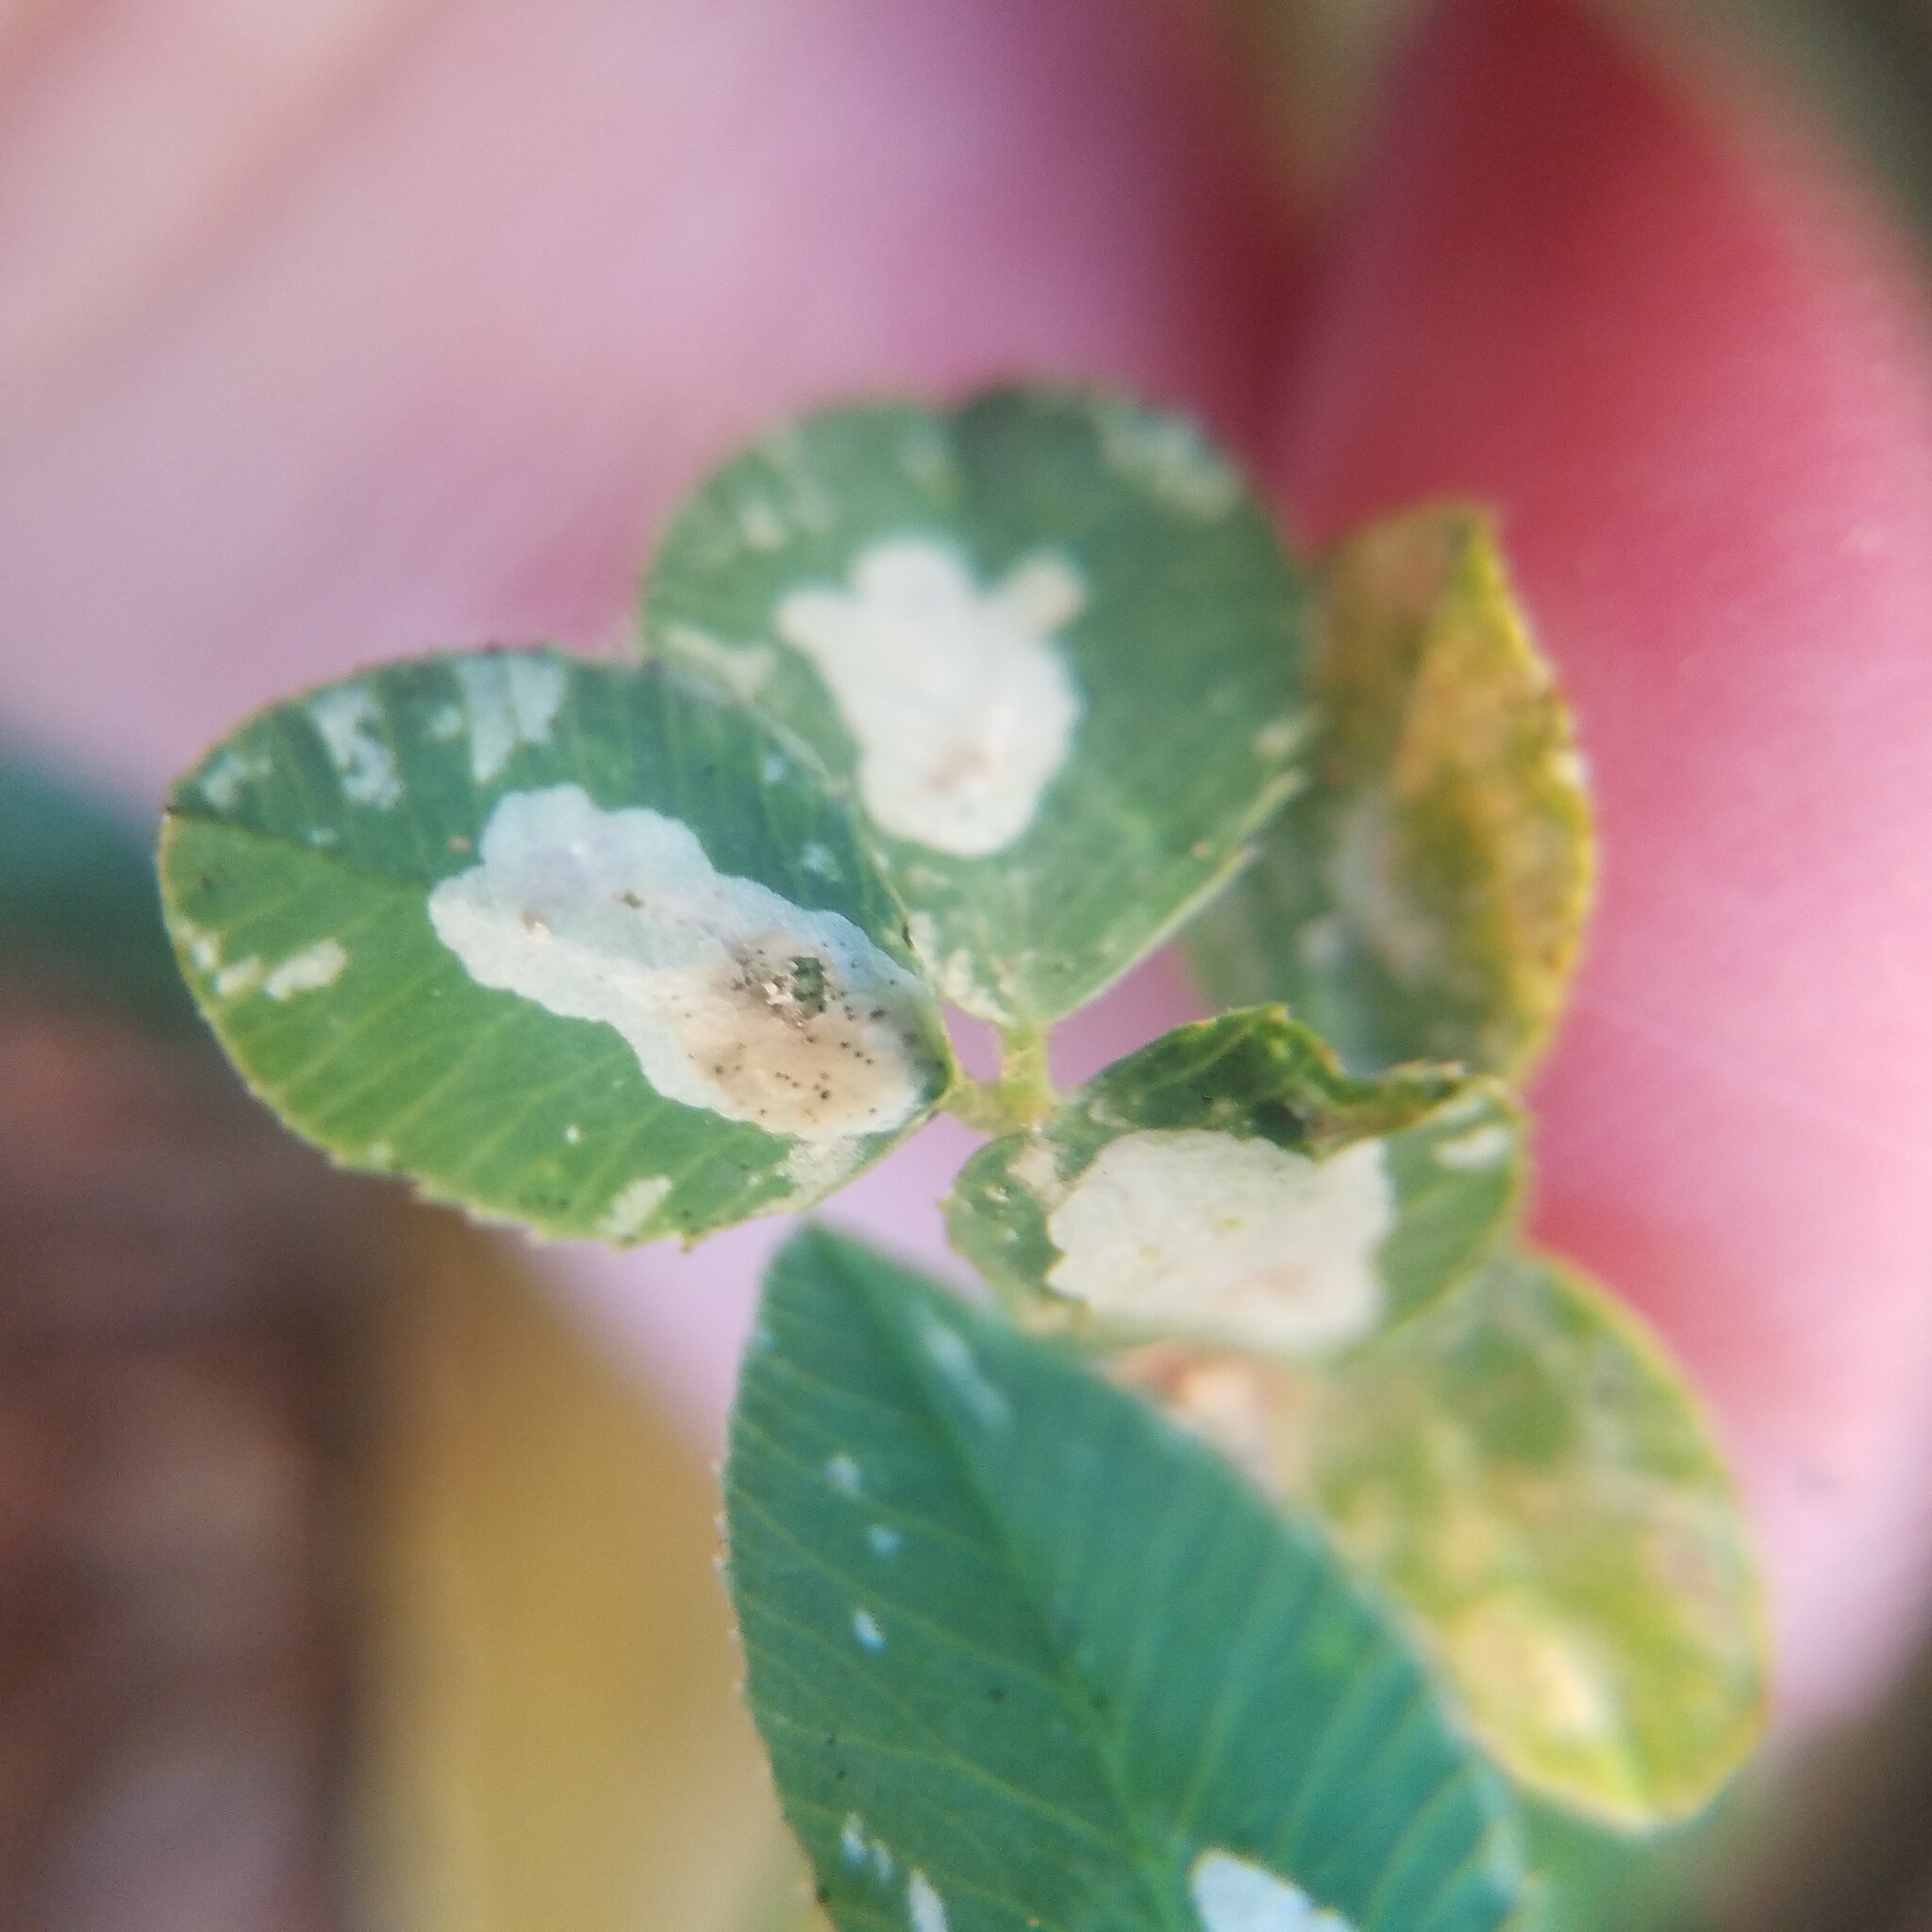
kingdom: Animalia
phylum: Arthropoda
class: Insecta
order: Lepidoptera
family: Gracillariidae
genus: Porphyrosela
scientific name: Porphyrosela minuta
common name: Leaf miner moth
